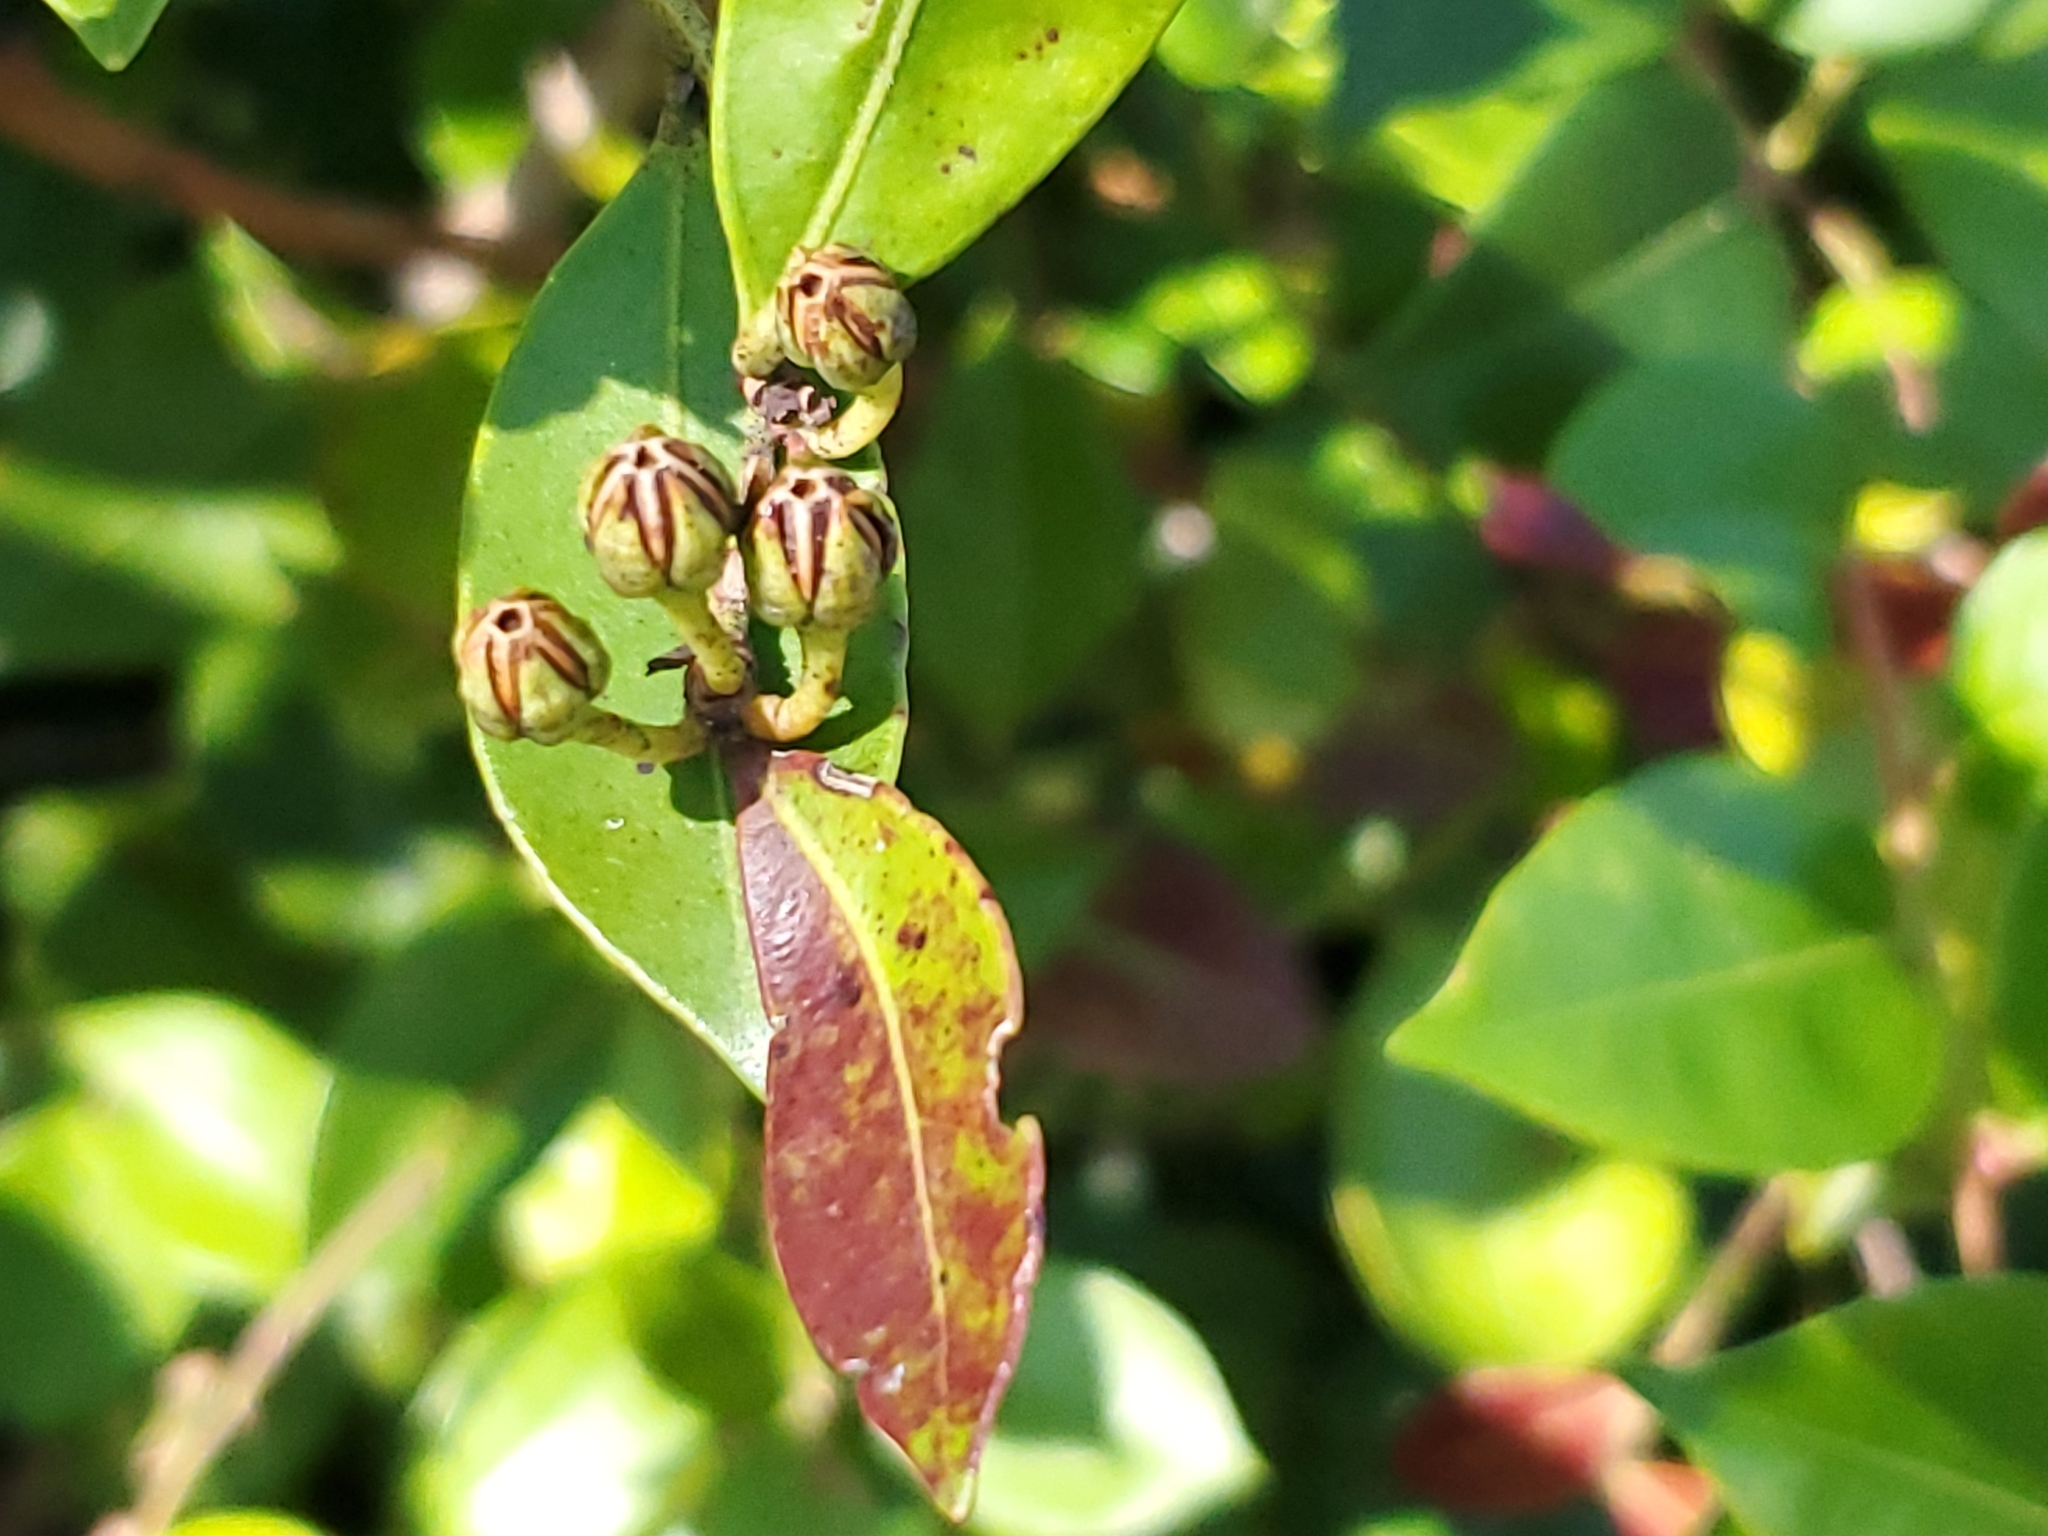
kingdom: Plantae
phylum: Tracheophyta
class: Magnoliopsida
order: Ericales
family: Ericaceae
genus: Lyonia
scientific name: Lyonia lucida
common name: Fetterbush
